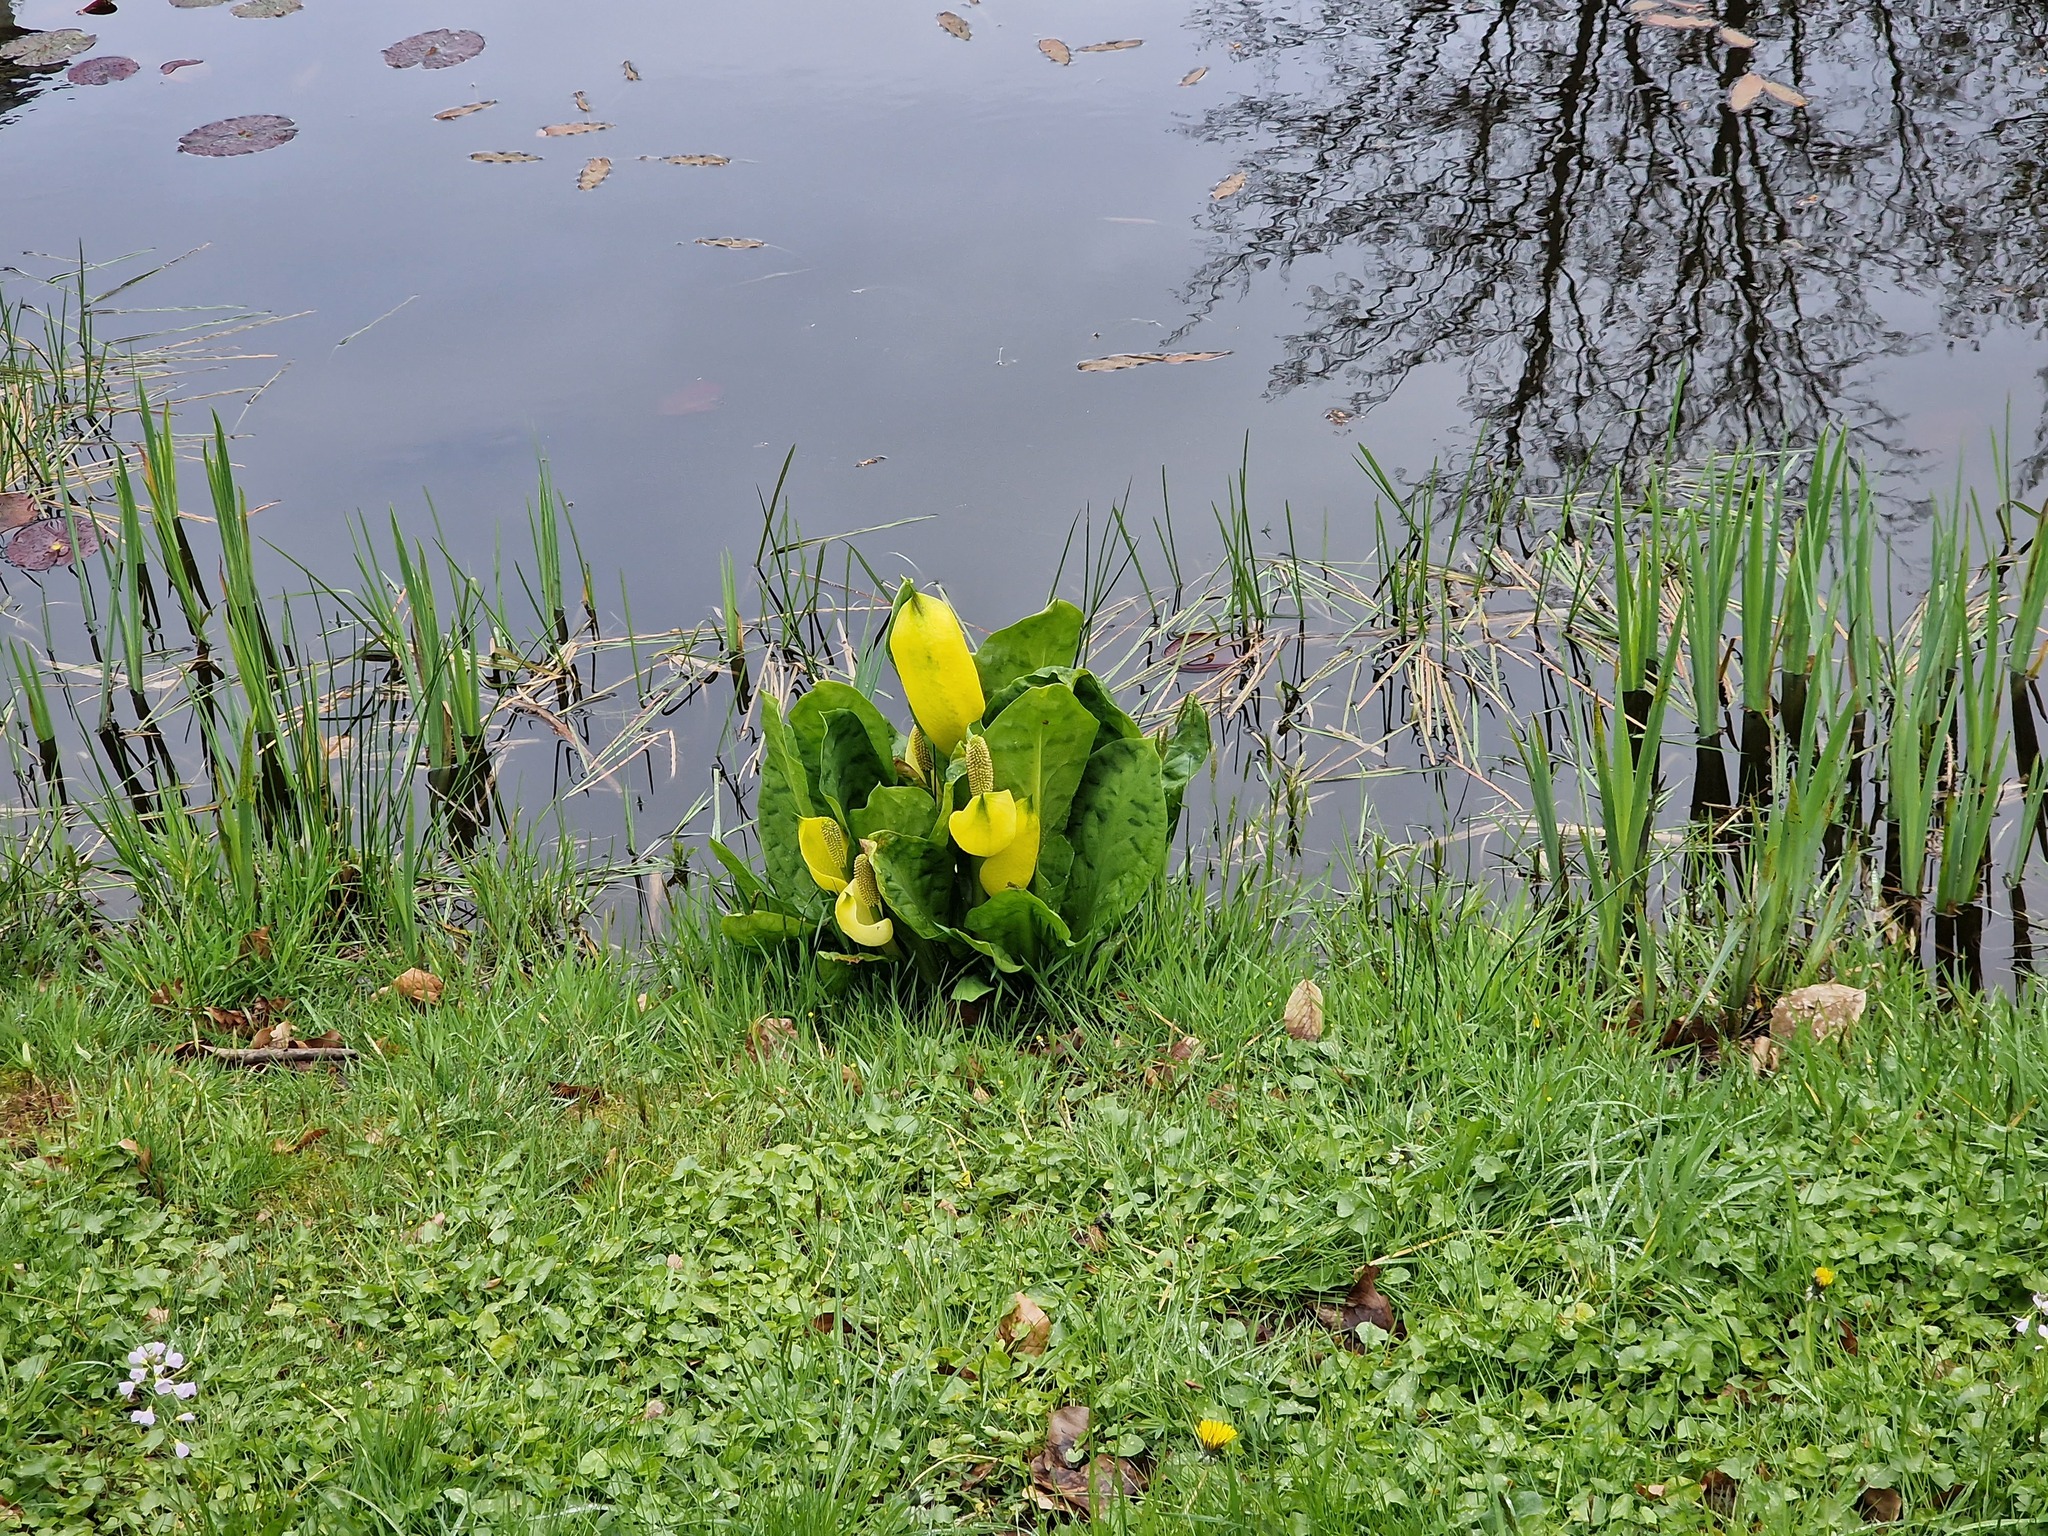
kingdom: Plantae
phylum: Tracheophyta
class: Liliopsida
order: Alismatales
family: Araceae
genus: Lysichiton
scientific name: Lysichiton americanus
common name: American skunk cabbage
